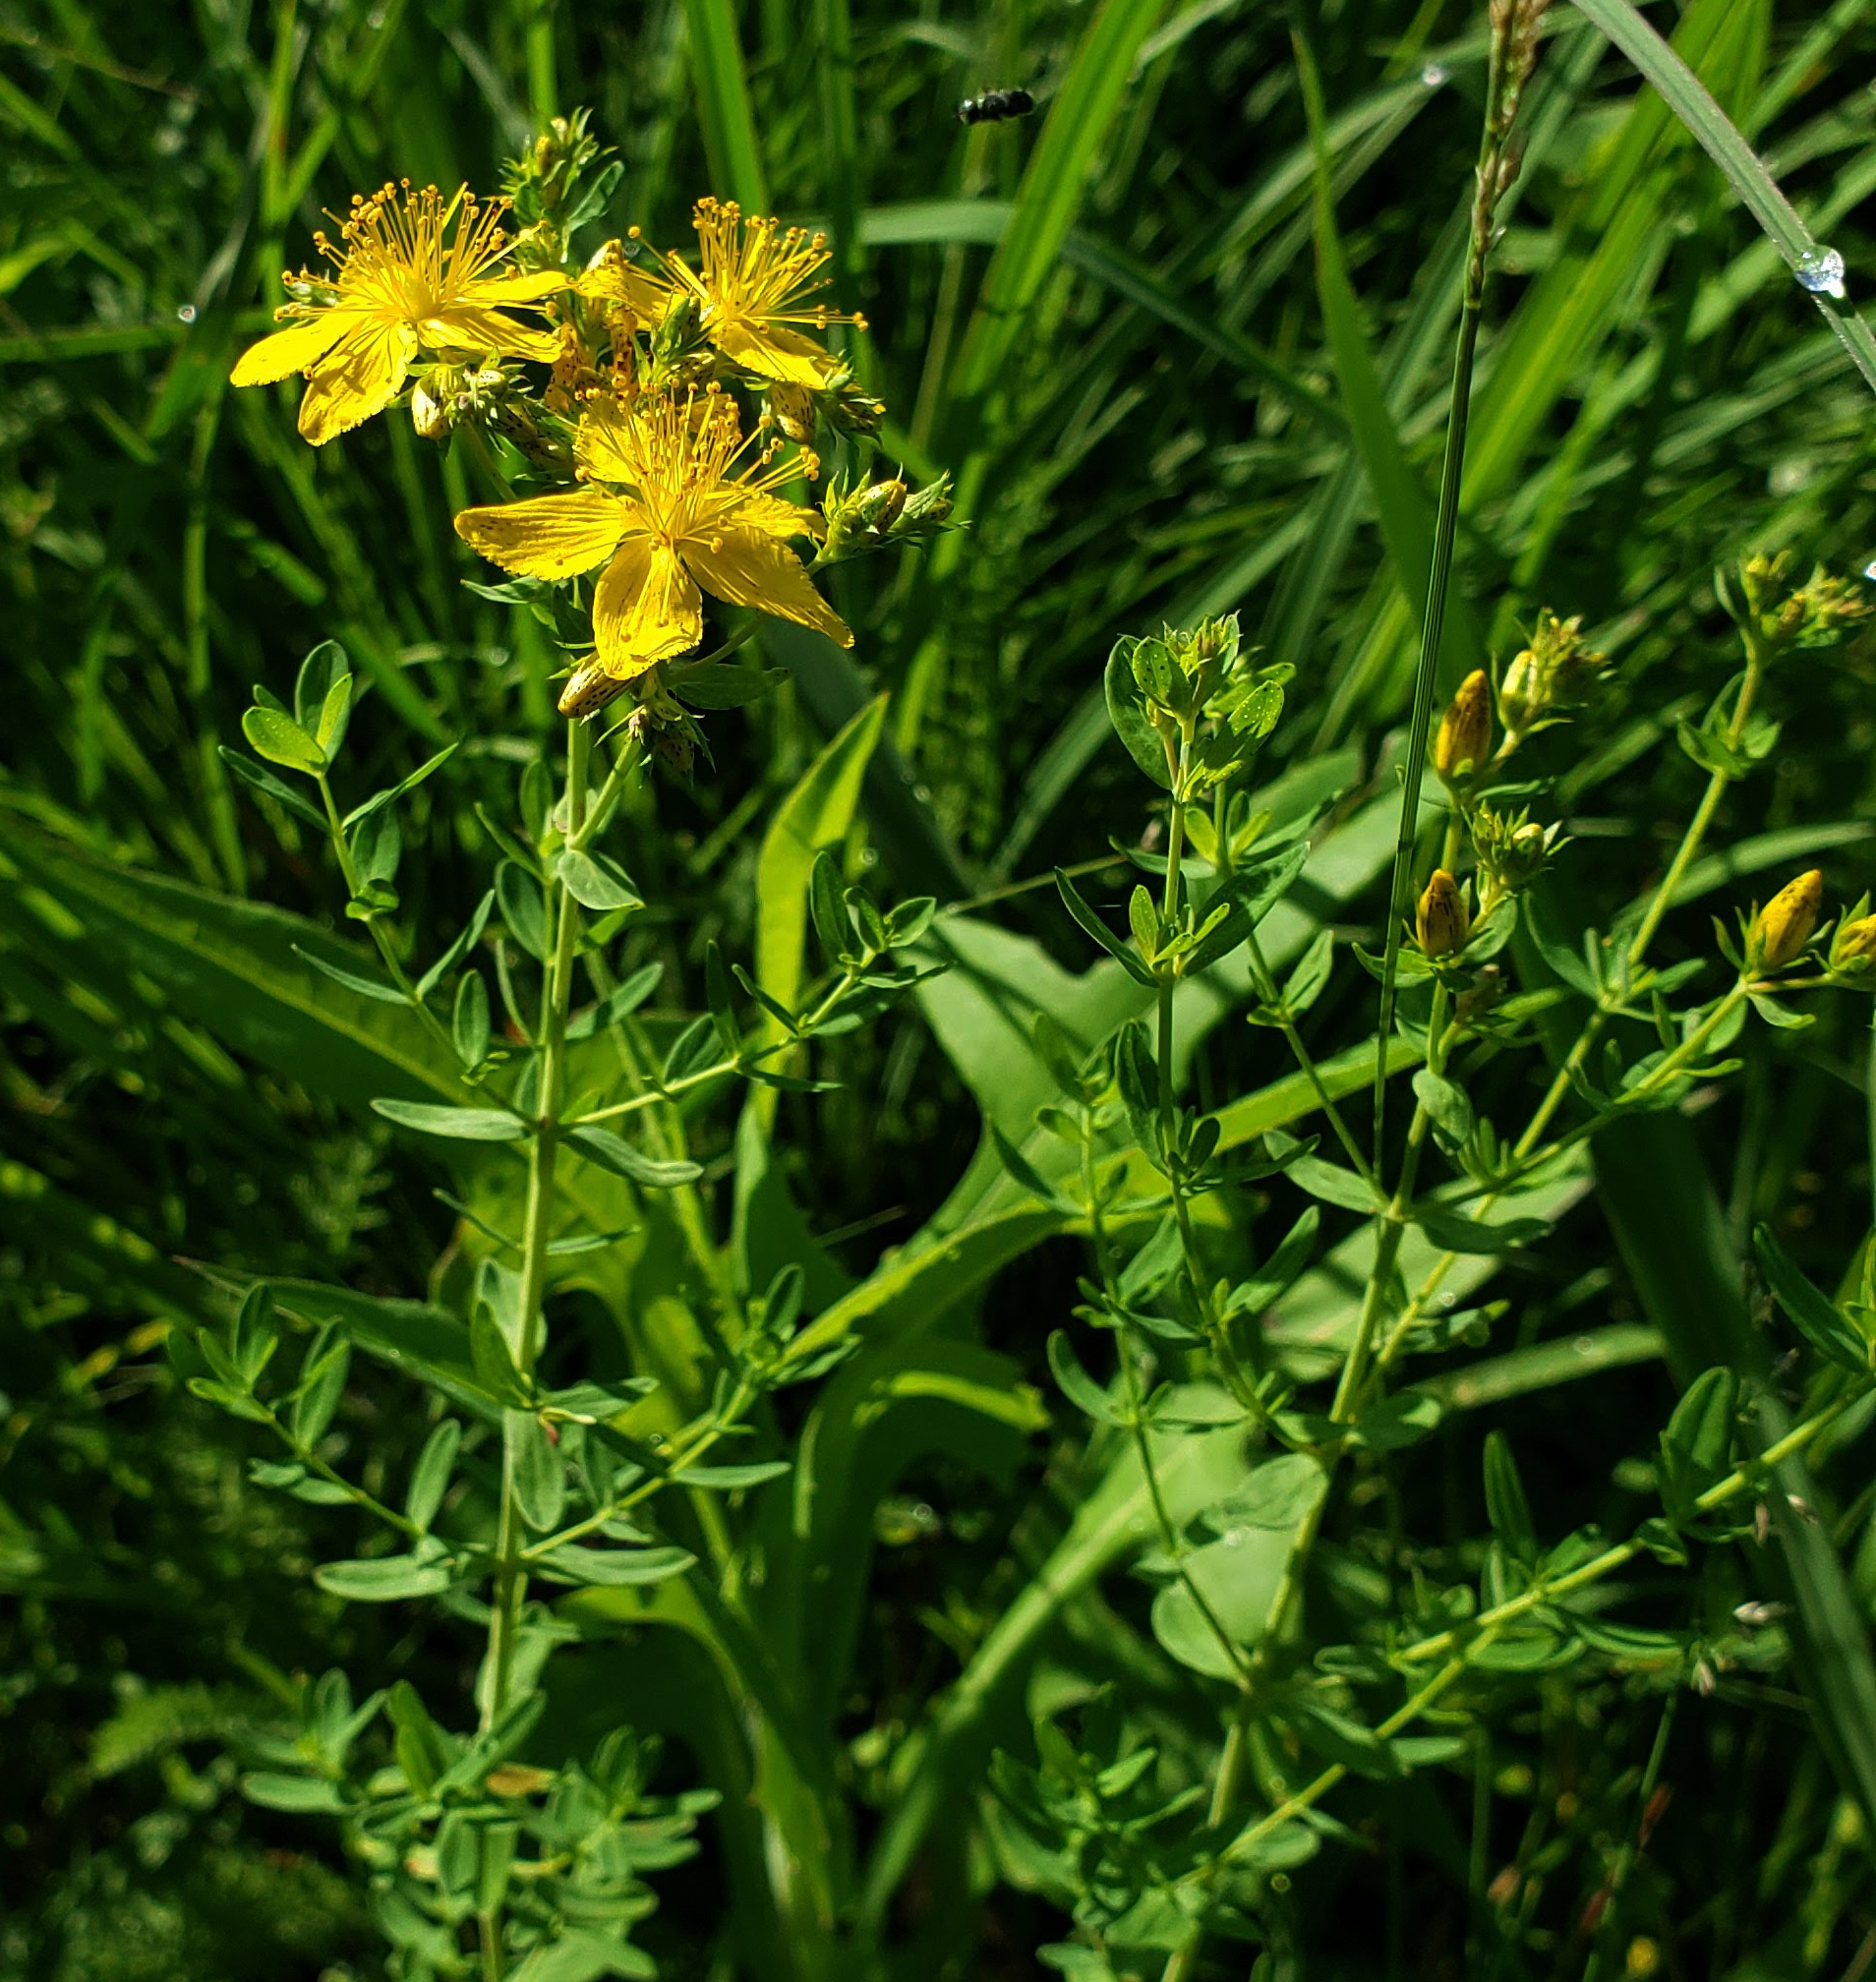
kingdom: Plantae
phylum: Tracheophyta
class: Magnoliopsida
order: Malpighiales
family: Hypericaceae
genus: Hypericum
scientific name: Hypericum perforatum
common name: Common st. johnswort
